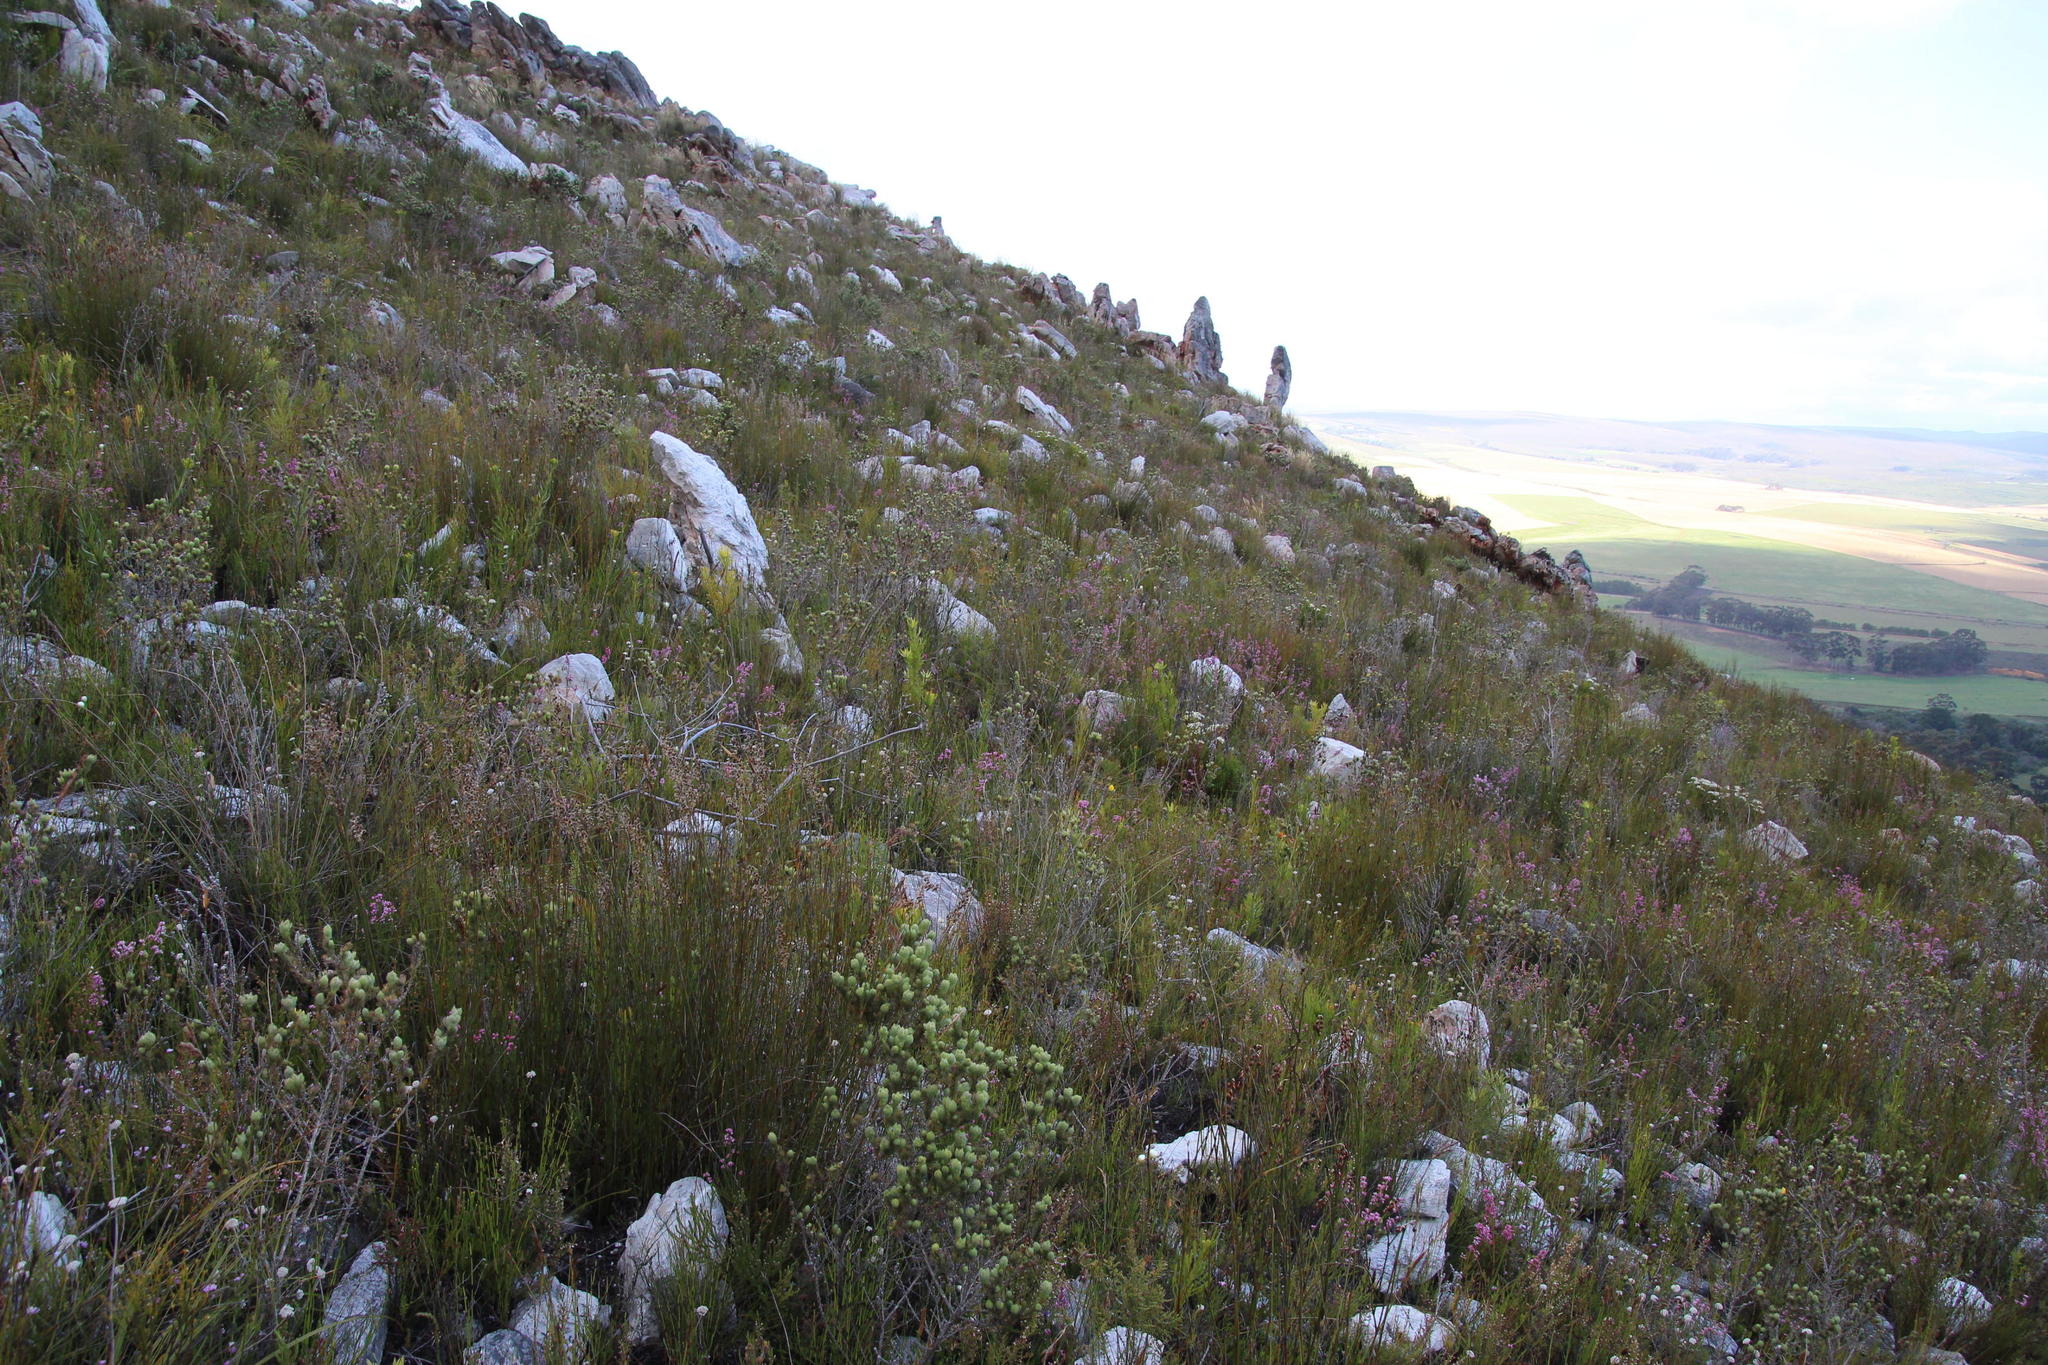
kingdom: Plantae
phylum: Tracheophyta
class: Magnoliopsida
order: Fabales
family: Fabaceae
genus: Aspalathus
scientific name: Aspalathus ciliaris
